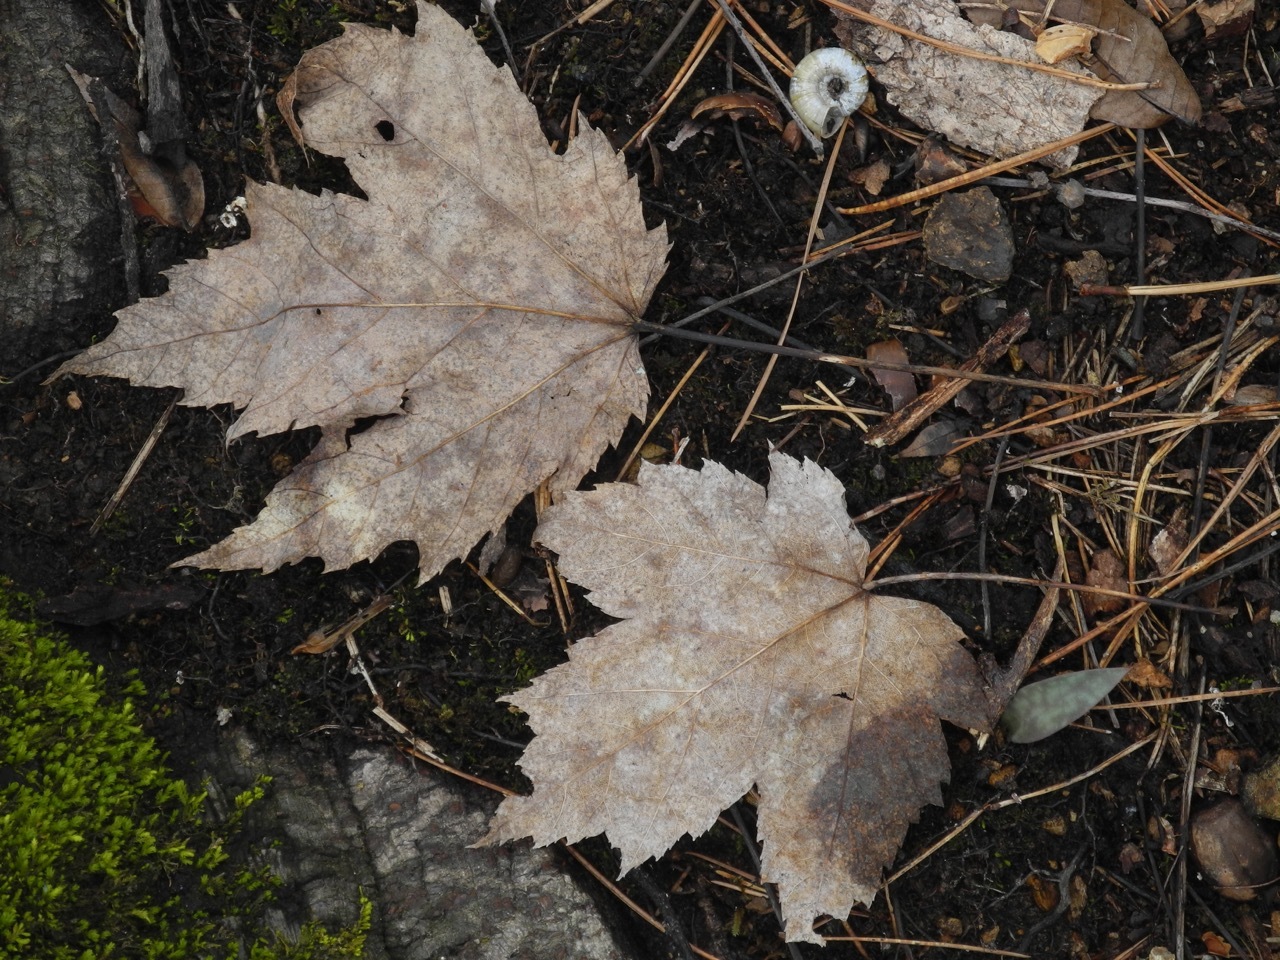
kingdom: Plantae
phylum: Tracheophyta
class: Magnoliopsida
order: Sapindales
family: Sapindaceae
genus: Acer
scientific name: Acer freemanii
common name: Freeman maple
